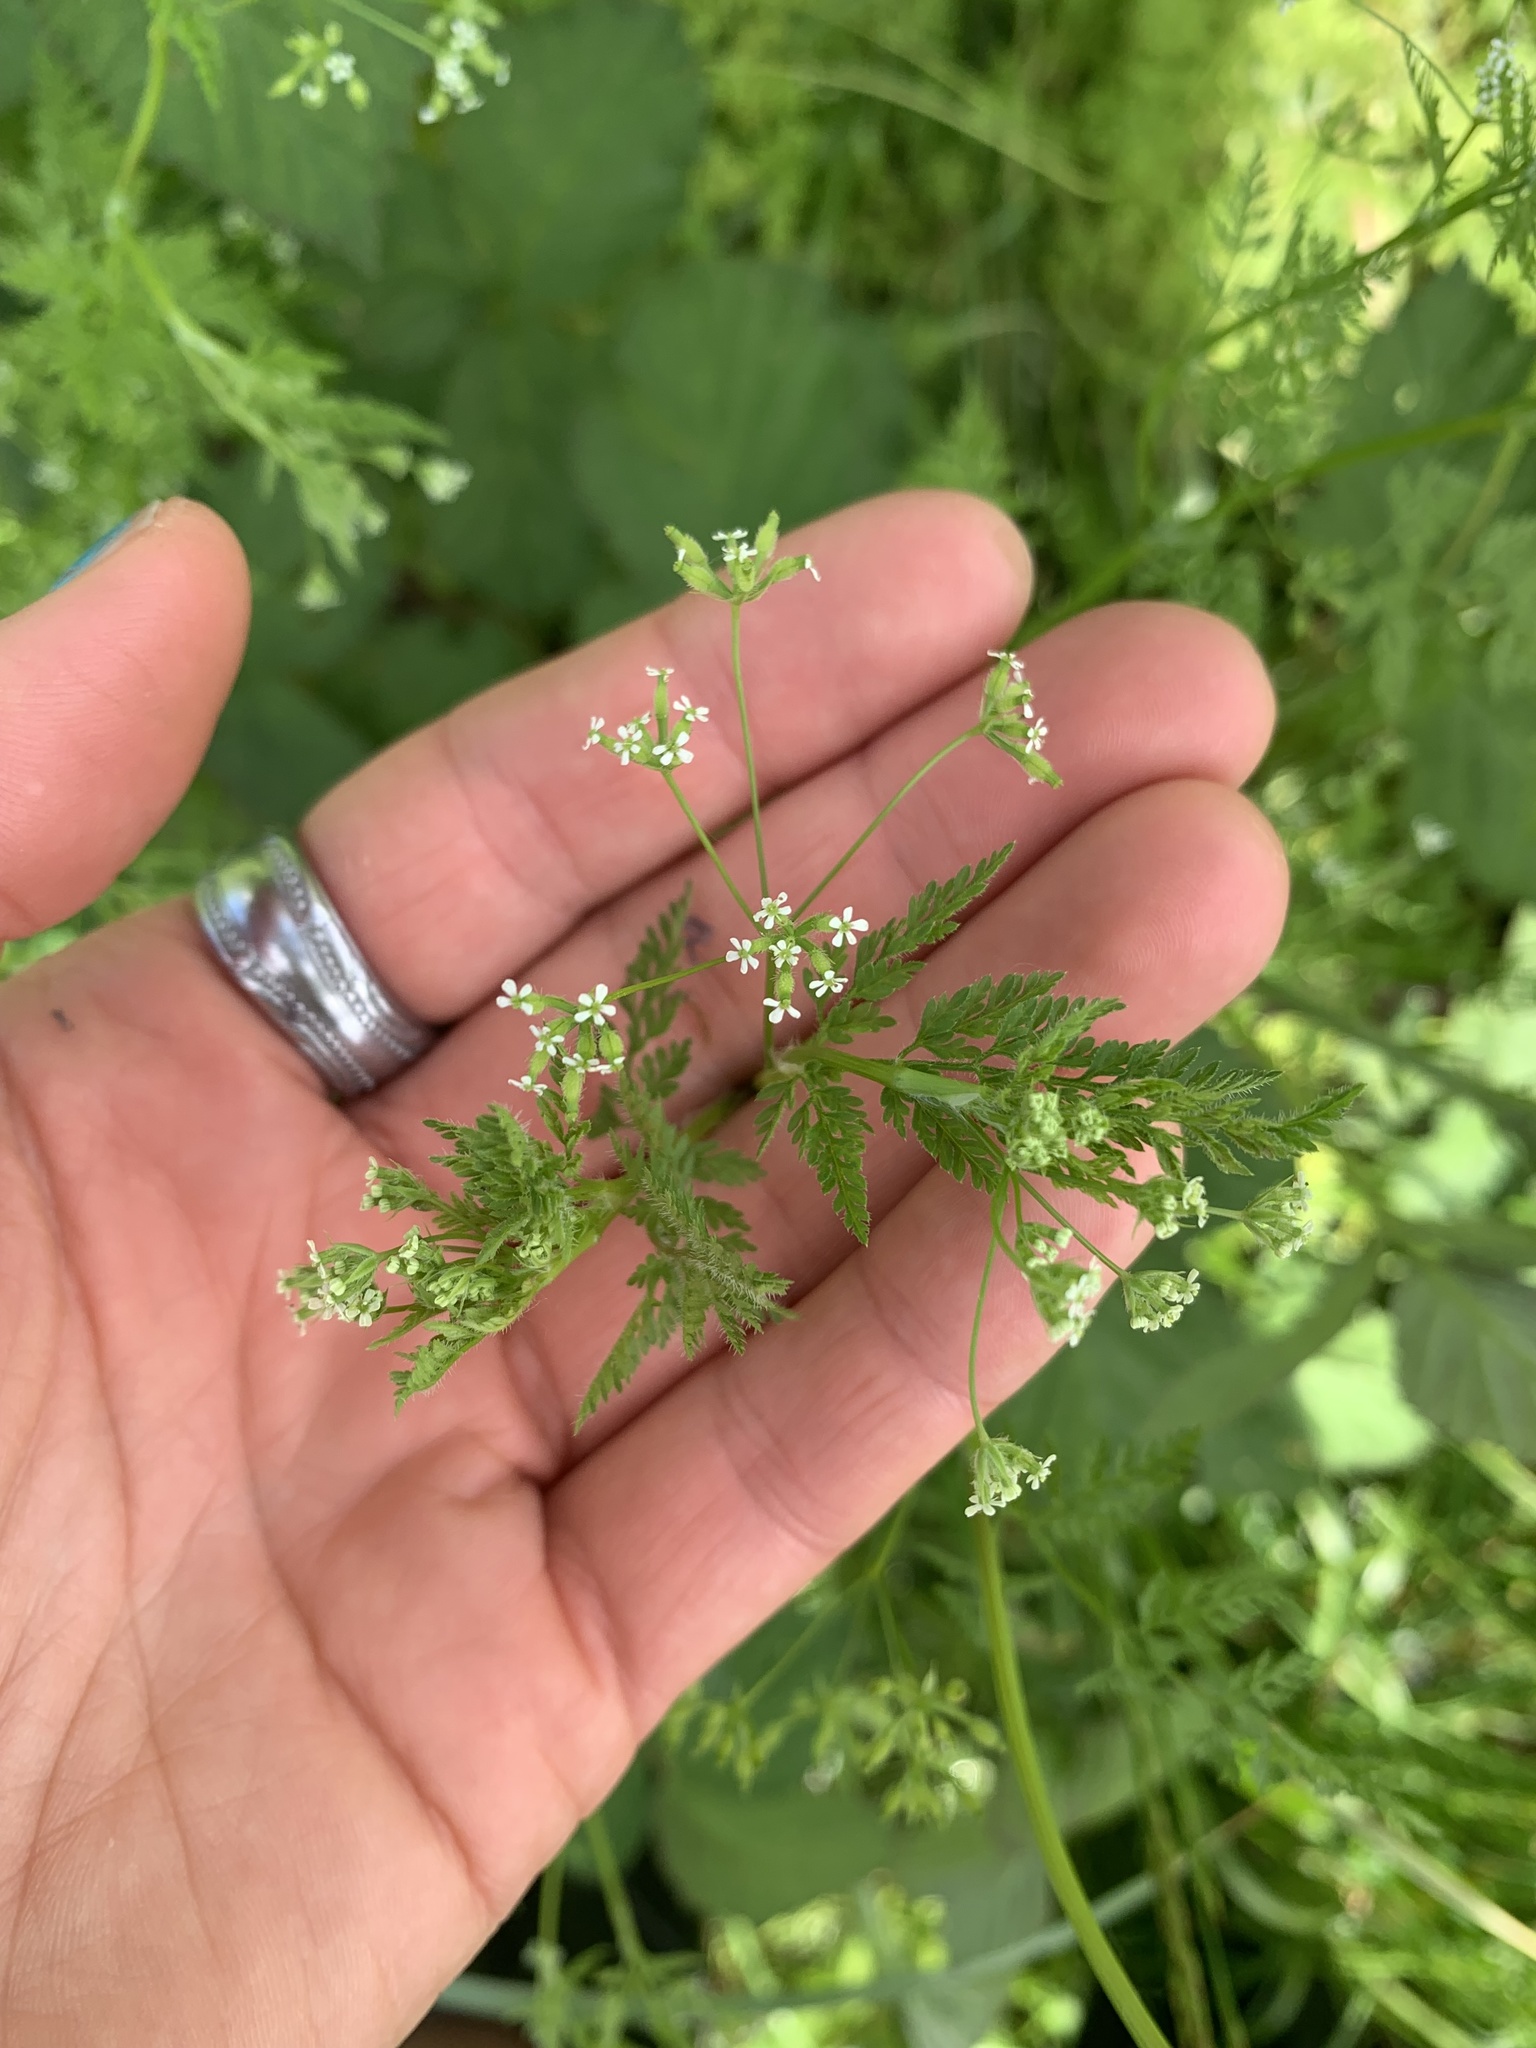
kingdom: Plantae
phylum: Tracheophyta
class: Magnoliopsida
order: Apiales
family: Apiaceae
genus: Anthriscus
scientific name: Anthriscus caucalis
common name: Bur chervil
